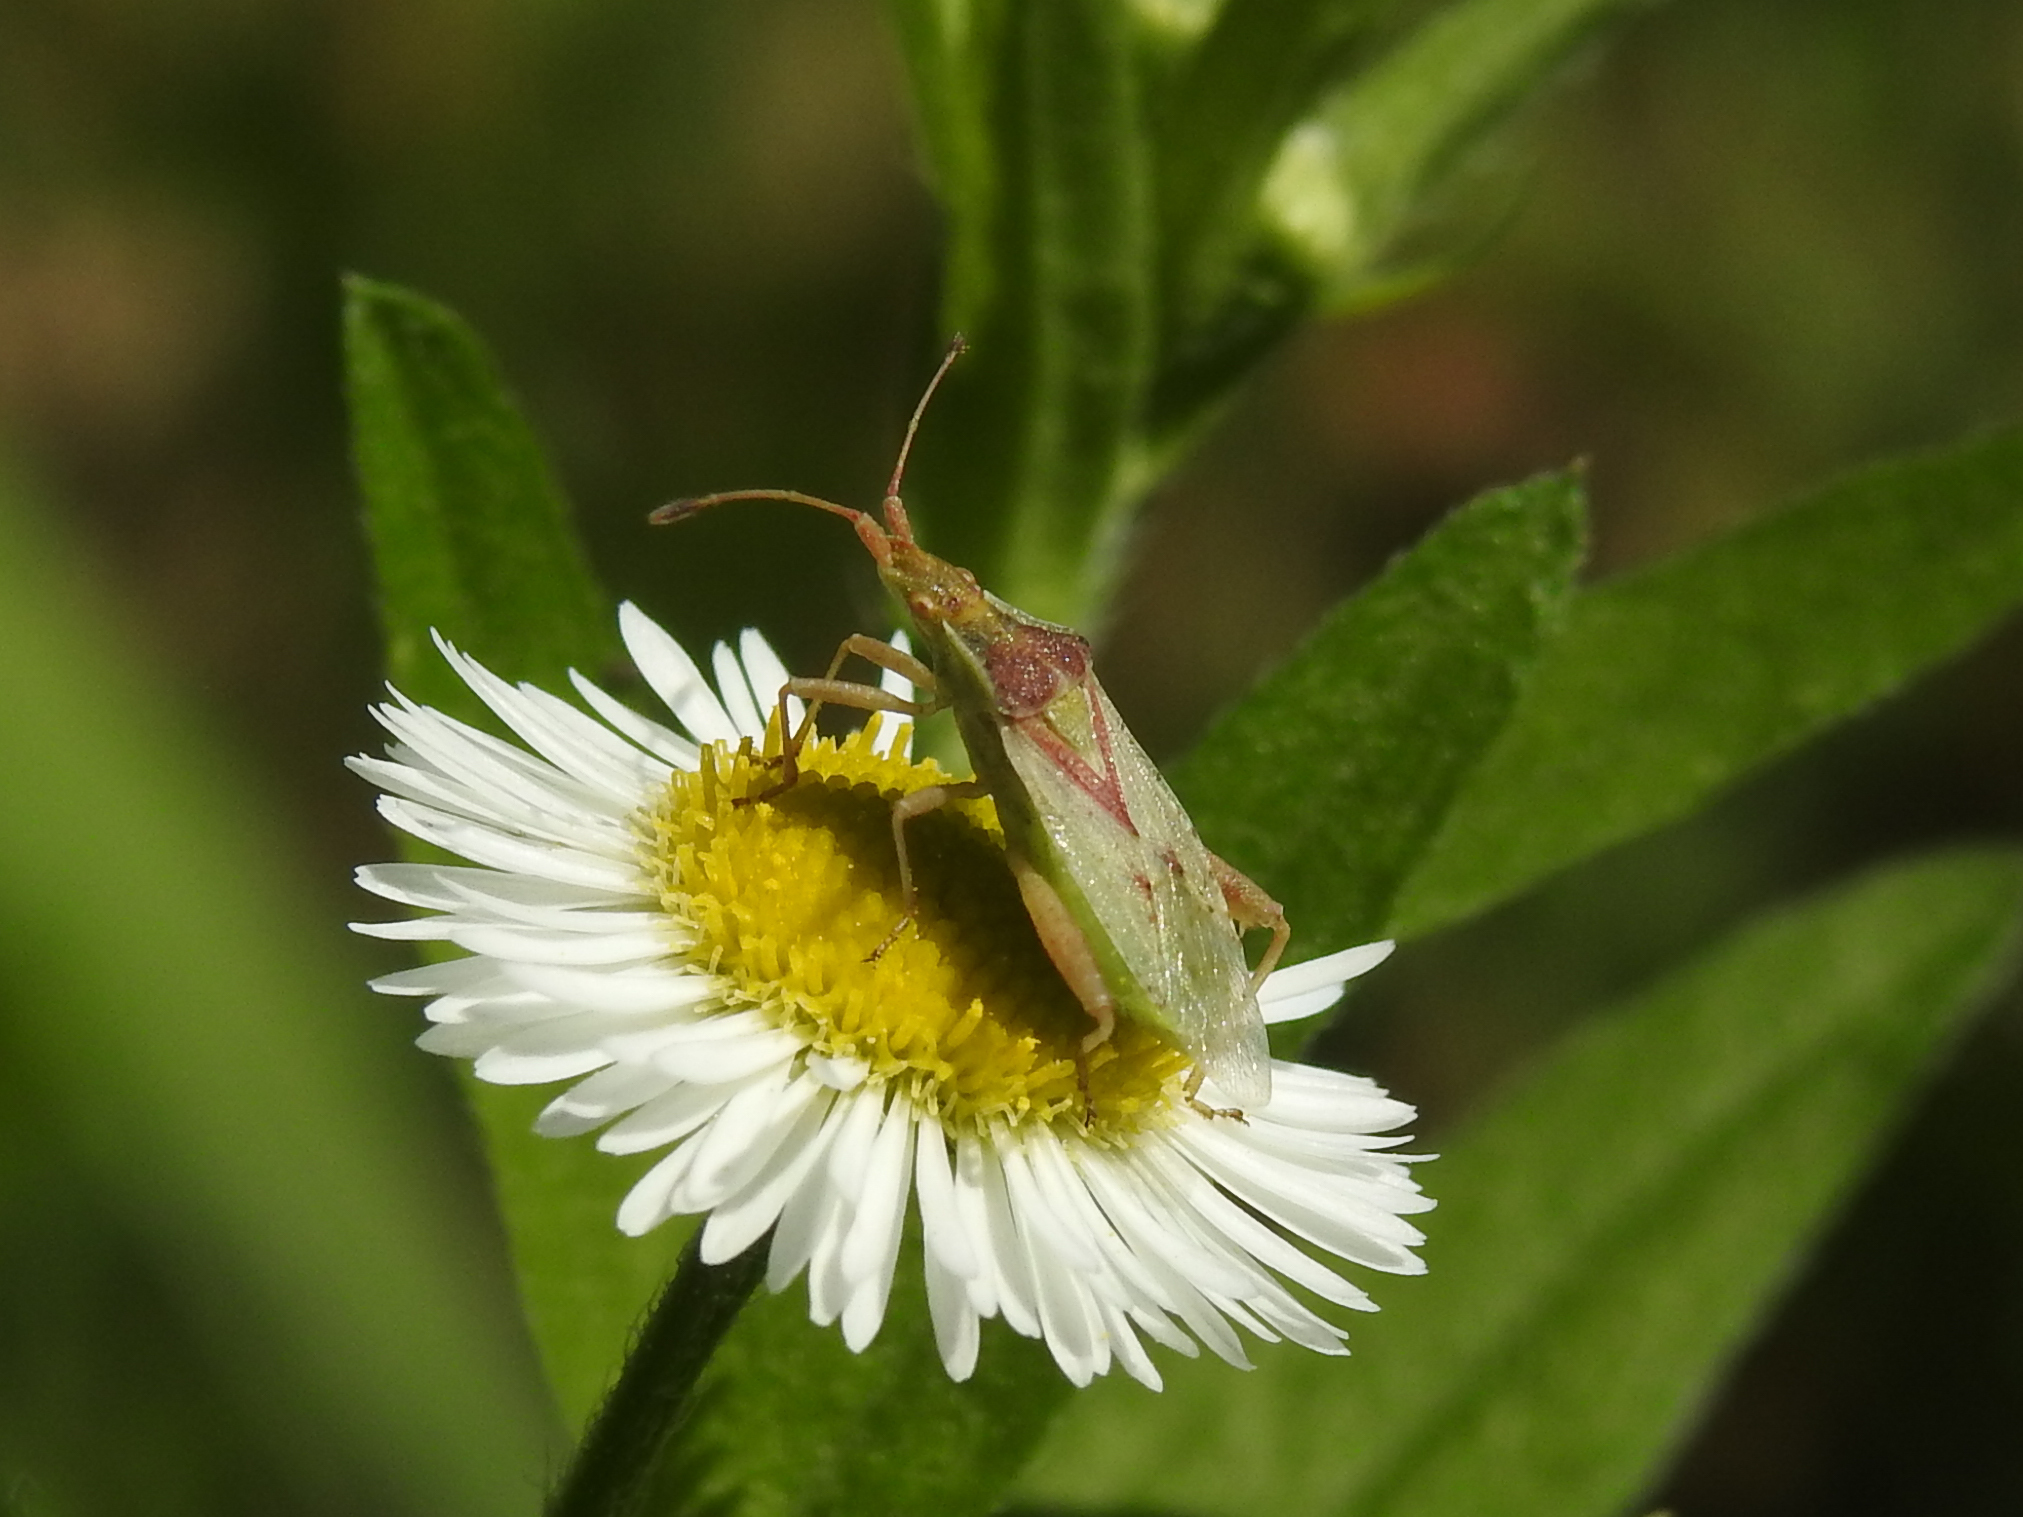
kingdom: Animalia
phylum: Arthropoda
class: Insecta
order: Hemiptera
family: Rhopalidae
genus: Harmostes
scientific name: Harmostes reflexulus
